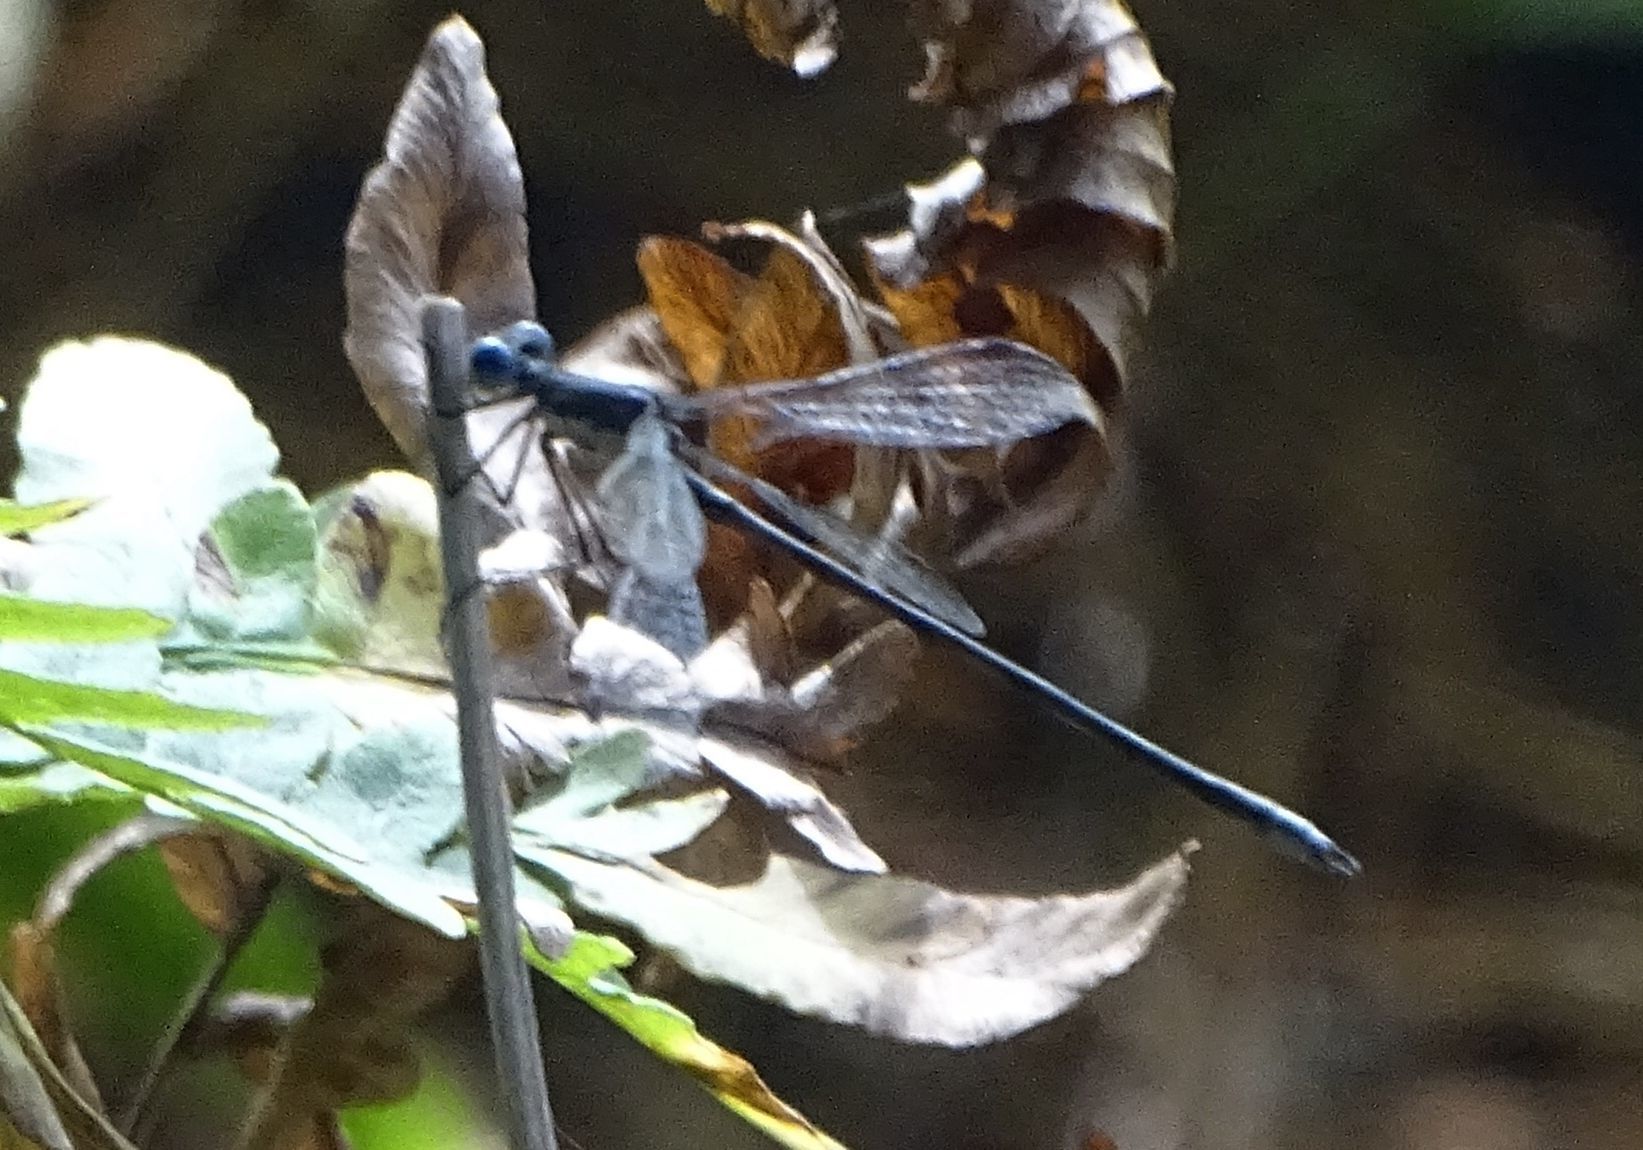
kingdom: Animalia
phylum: Arthropoda
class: Insecta
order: Odonata
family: Lestidae
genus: Lestes
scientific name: Lestes congener
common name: Spotted spreadwing
